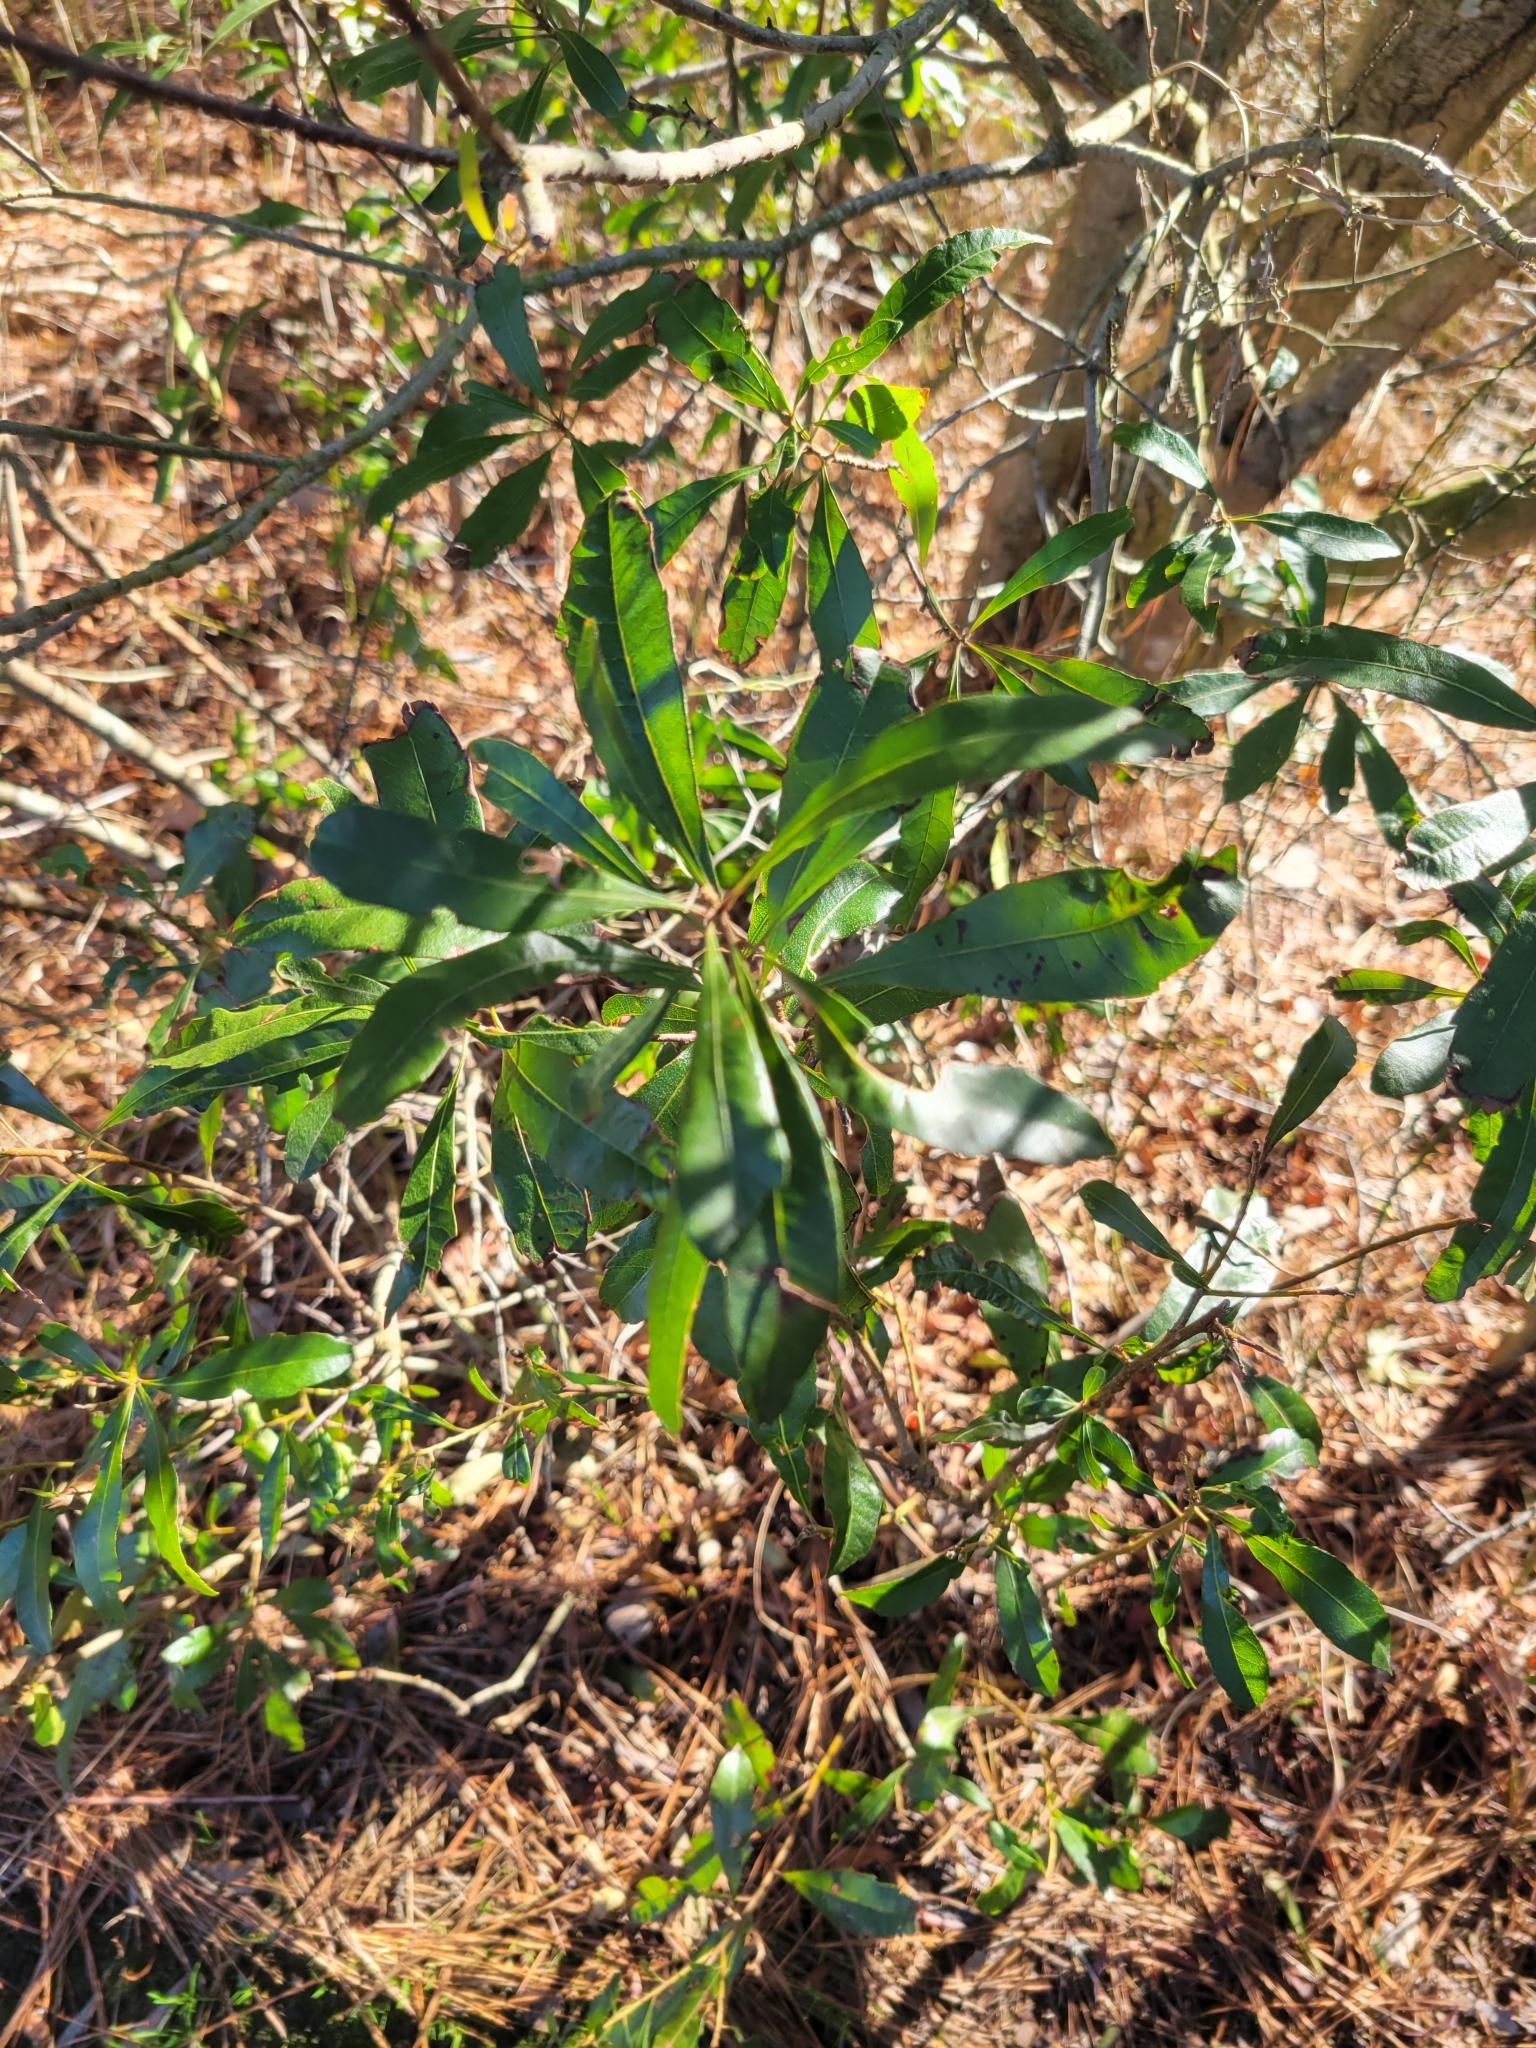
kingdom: Plantae
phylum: Tracheophyta
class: Magnoliopsida
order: Fagales
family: Myricaceae
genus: Morella
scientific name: Morella cerifera
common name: Wax myrtle
